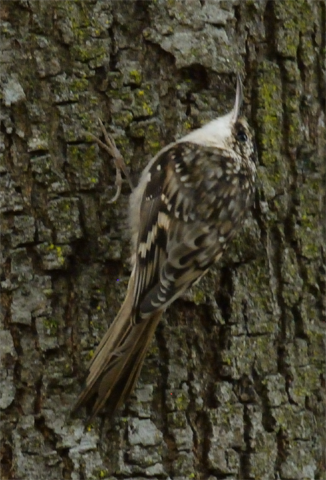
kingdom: Animalia
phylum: Chordata
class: Aves
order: Passeriformes
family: Certhiidae
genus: Certhia
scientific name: Certhia americana
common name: Brown creeper
